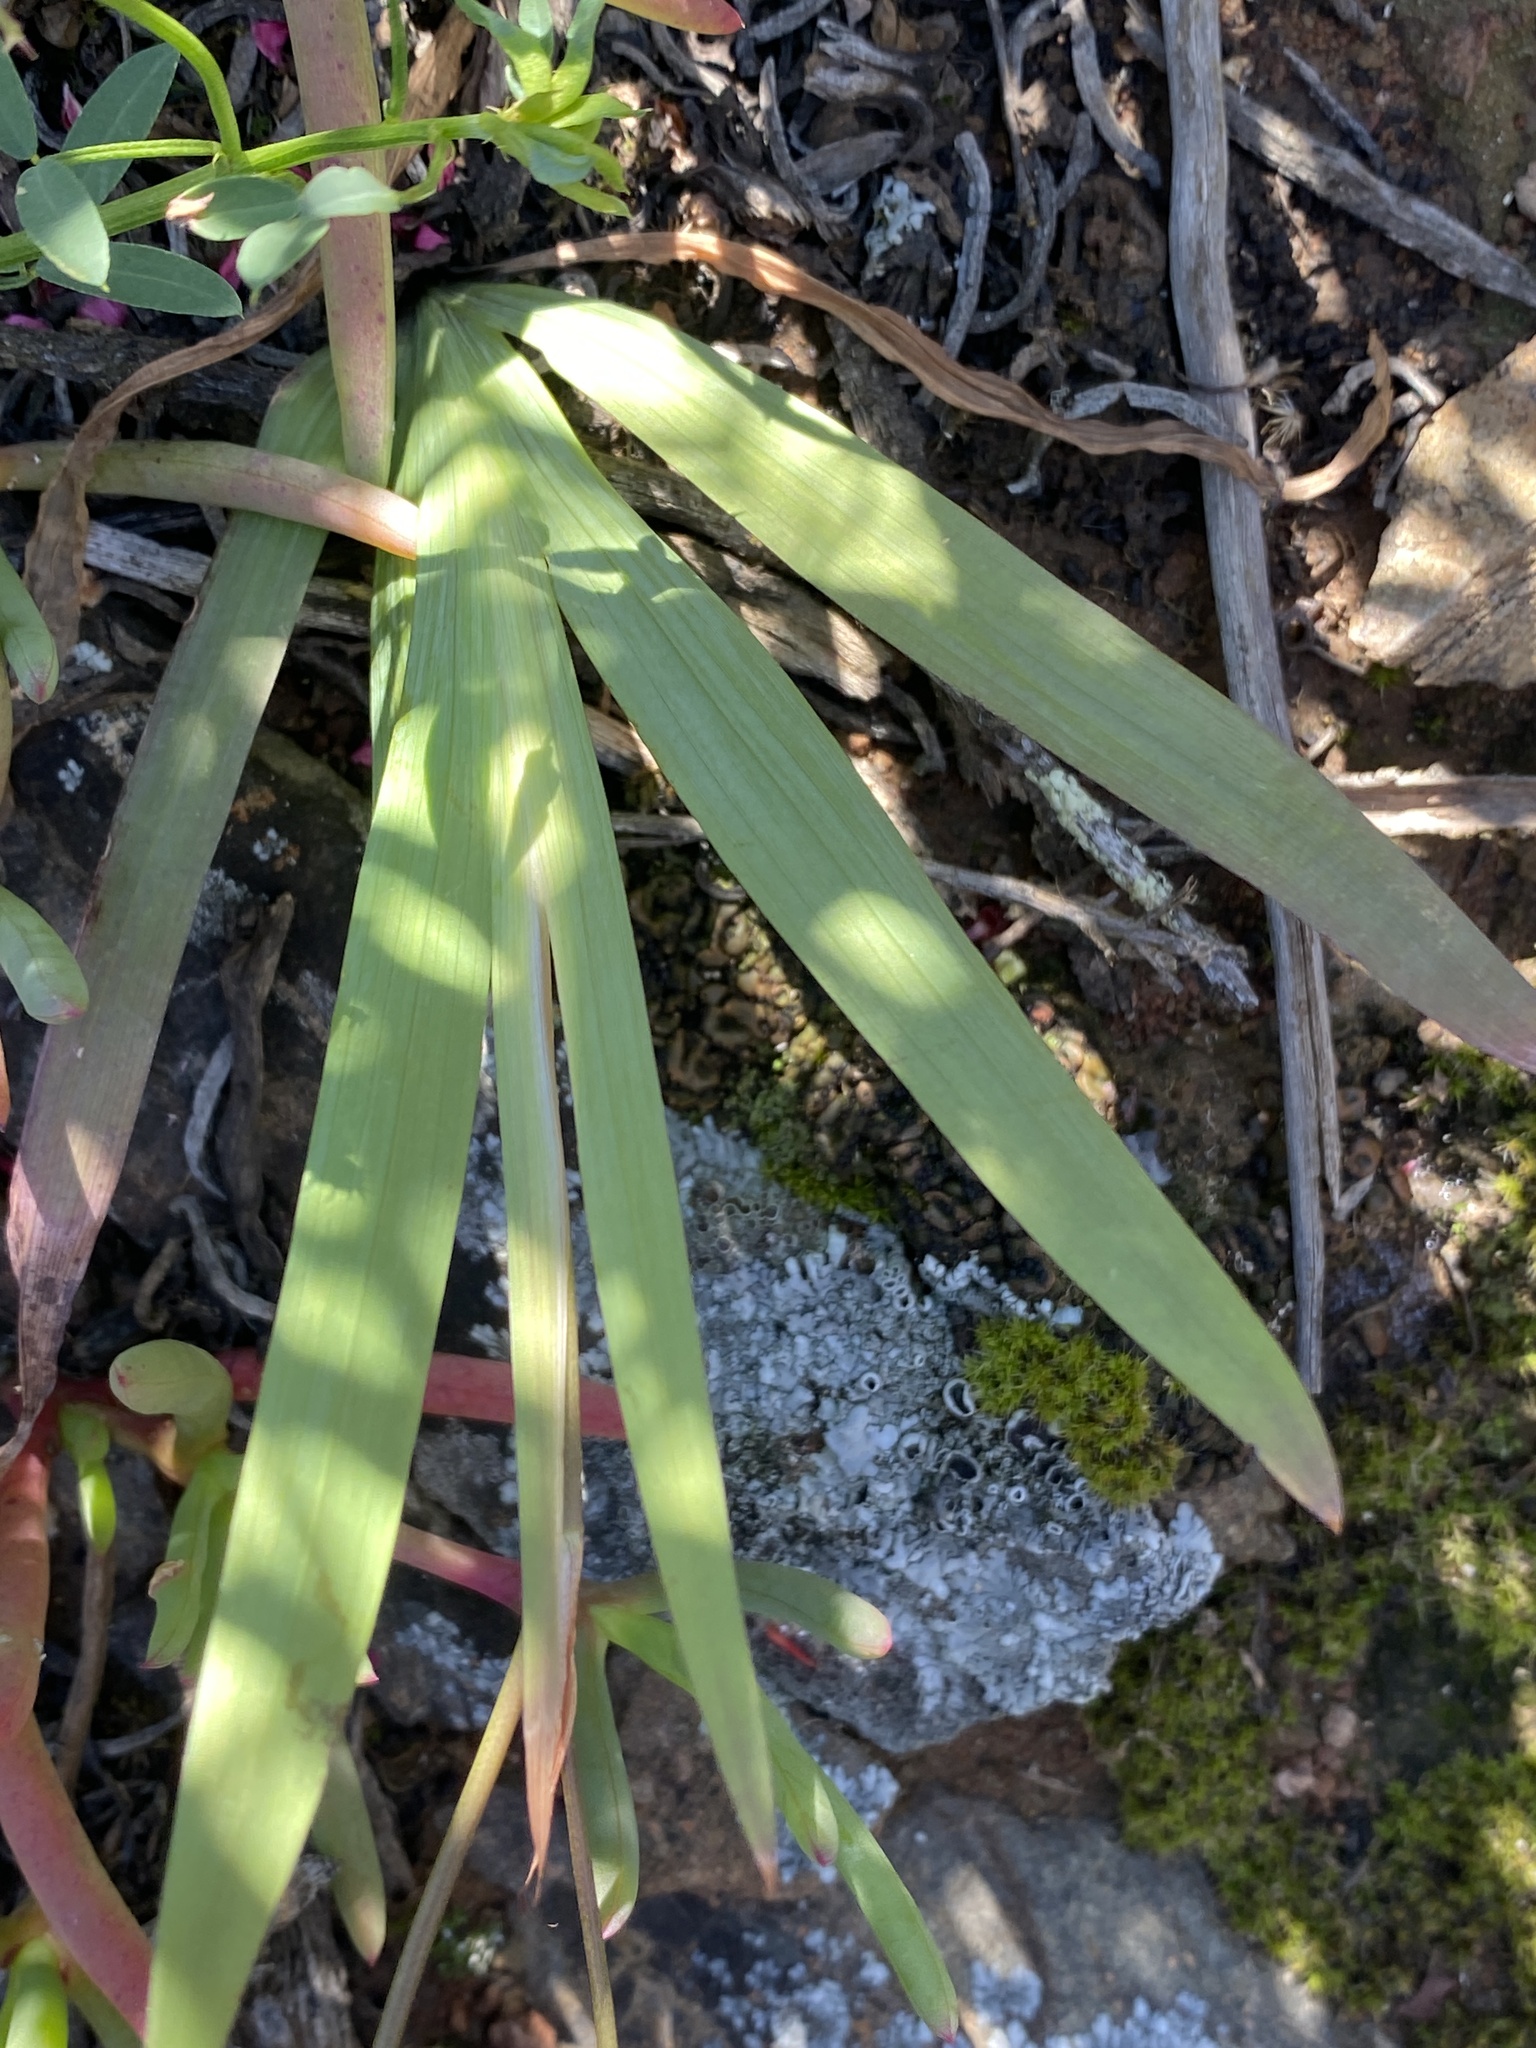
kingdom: Plantae
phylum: Tracheophyta
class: Liliopsida
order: Asparagales
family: Iridaceae
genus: Tritonia
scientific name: Tritonia pallida
